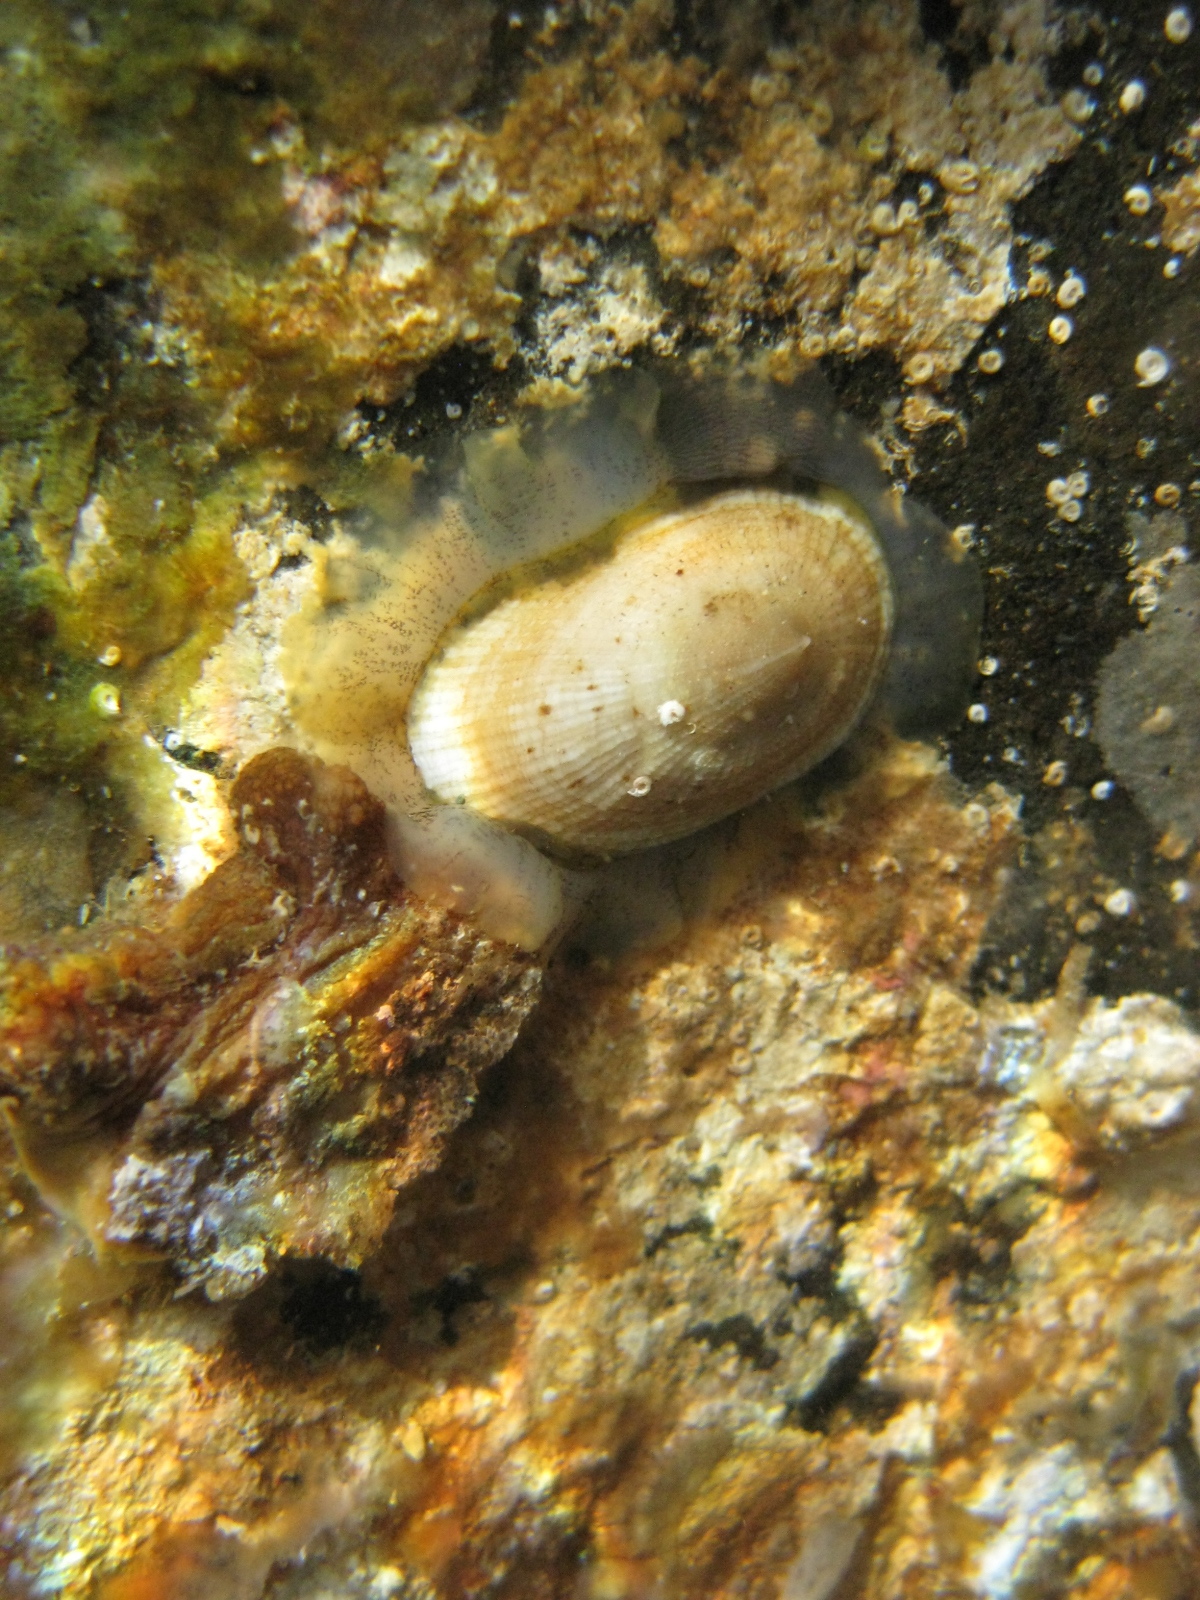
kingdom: Animalia
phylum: Mollusca
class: Gastropoda
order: Lepetellida
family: Fissurellidae
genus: Tugali
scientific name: Tugali elegans
